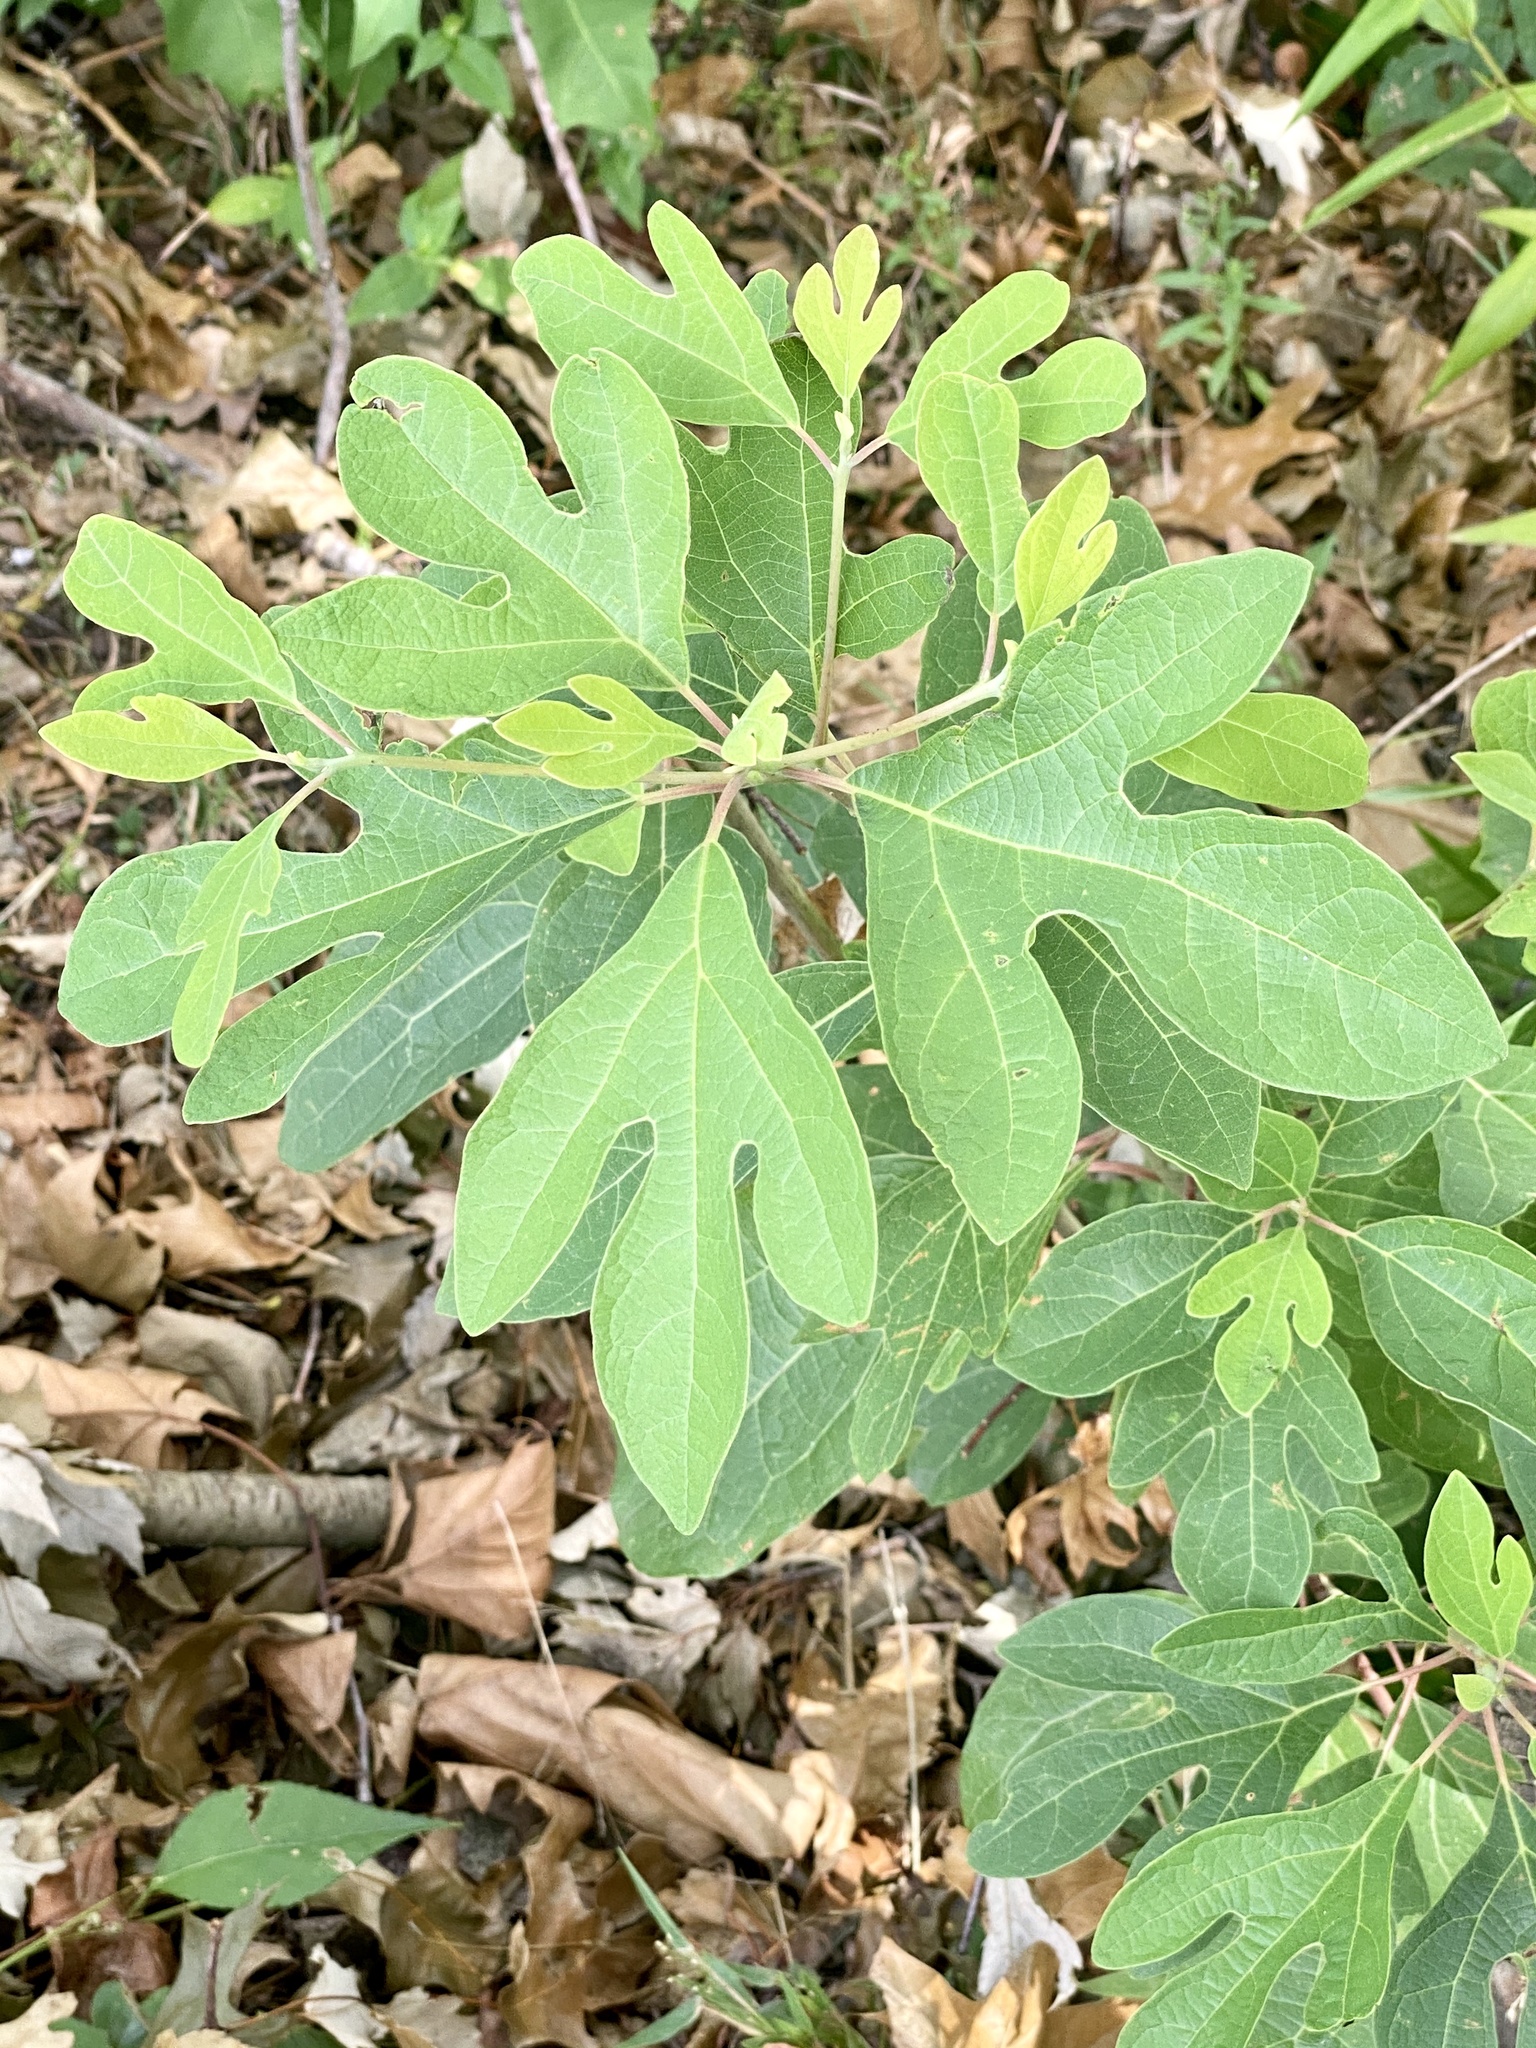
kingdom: Plantae
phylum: Tracheophyta
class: Magnoliopsida
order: Laurales
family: Lauraceae
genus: Sassafras
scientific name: Sassafras albidum
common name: Sassafras
